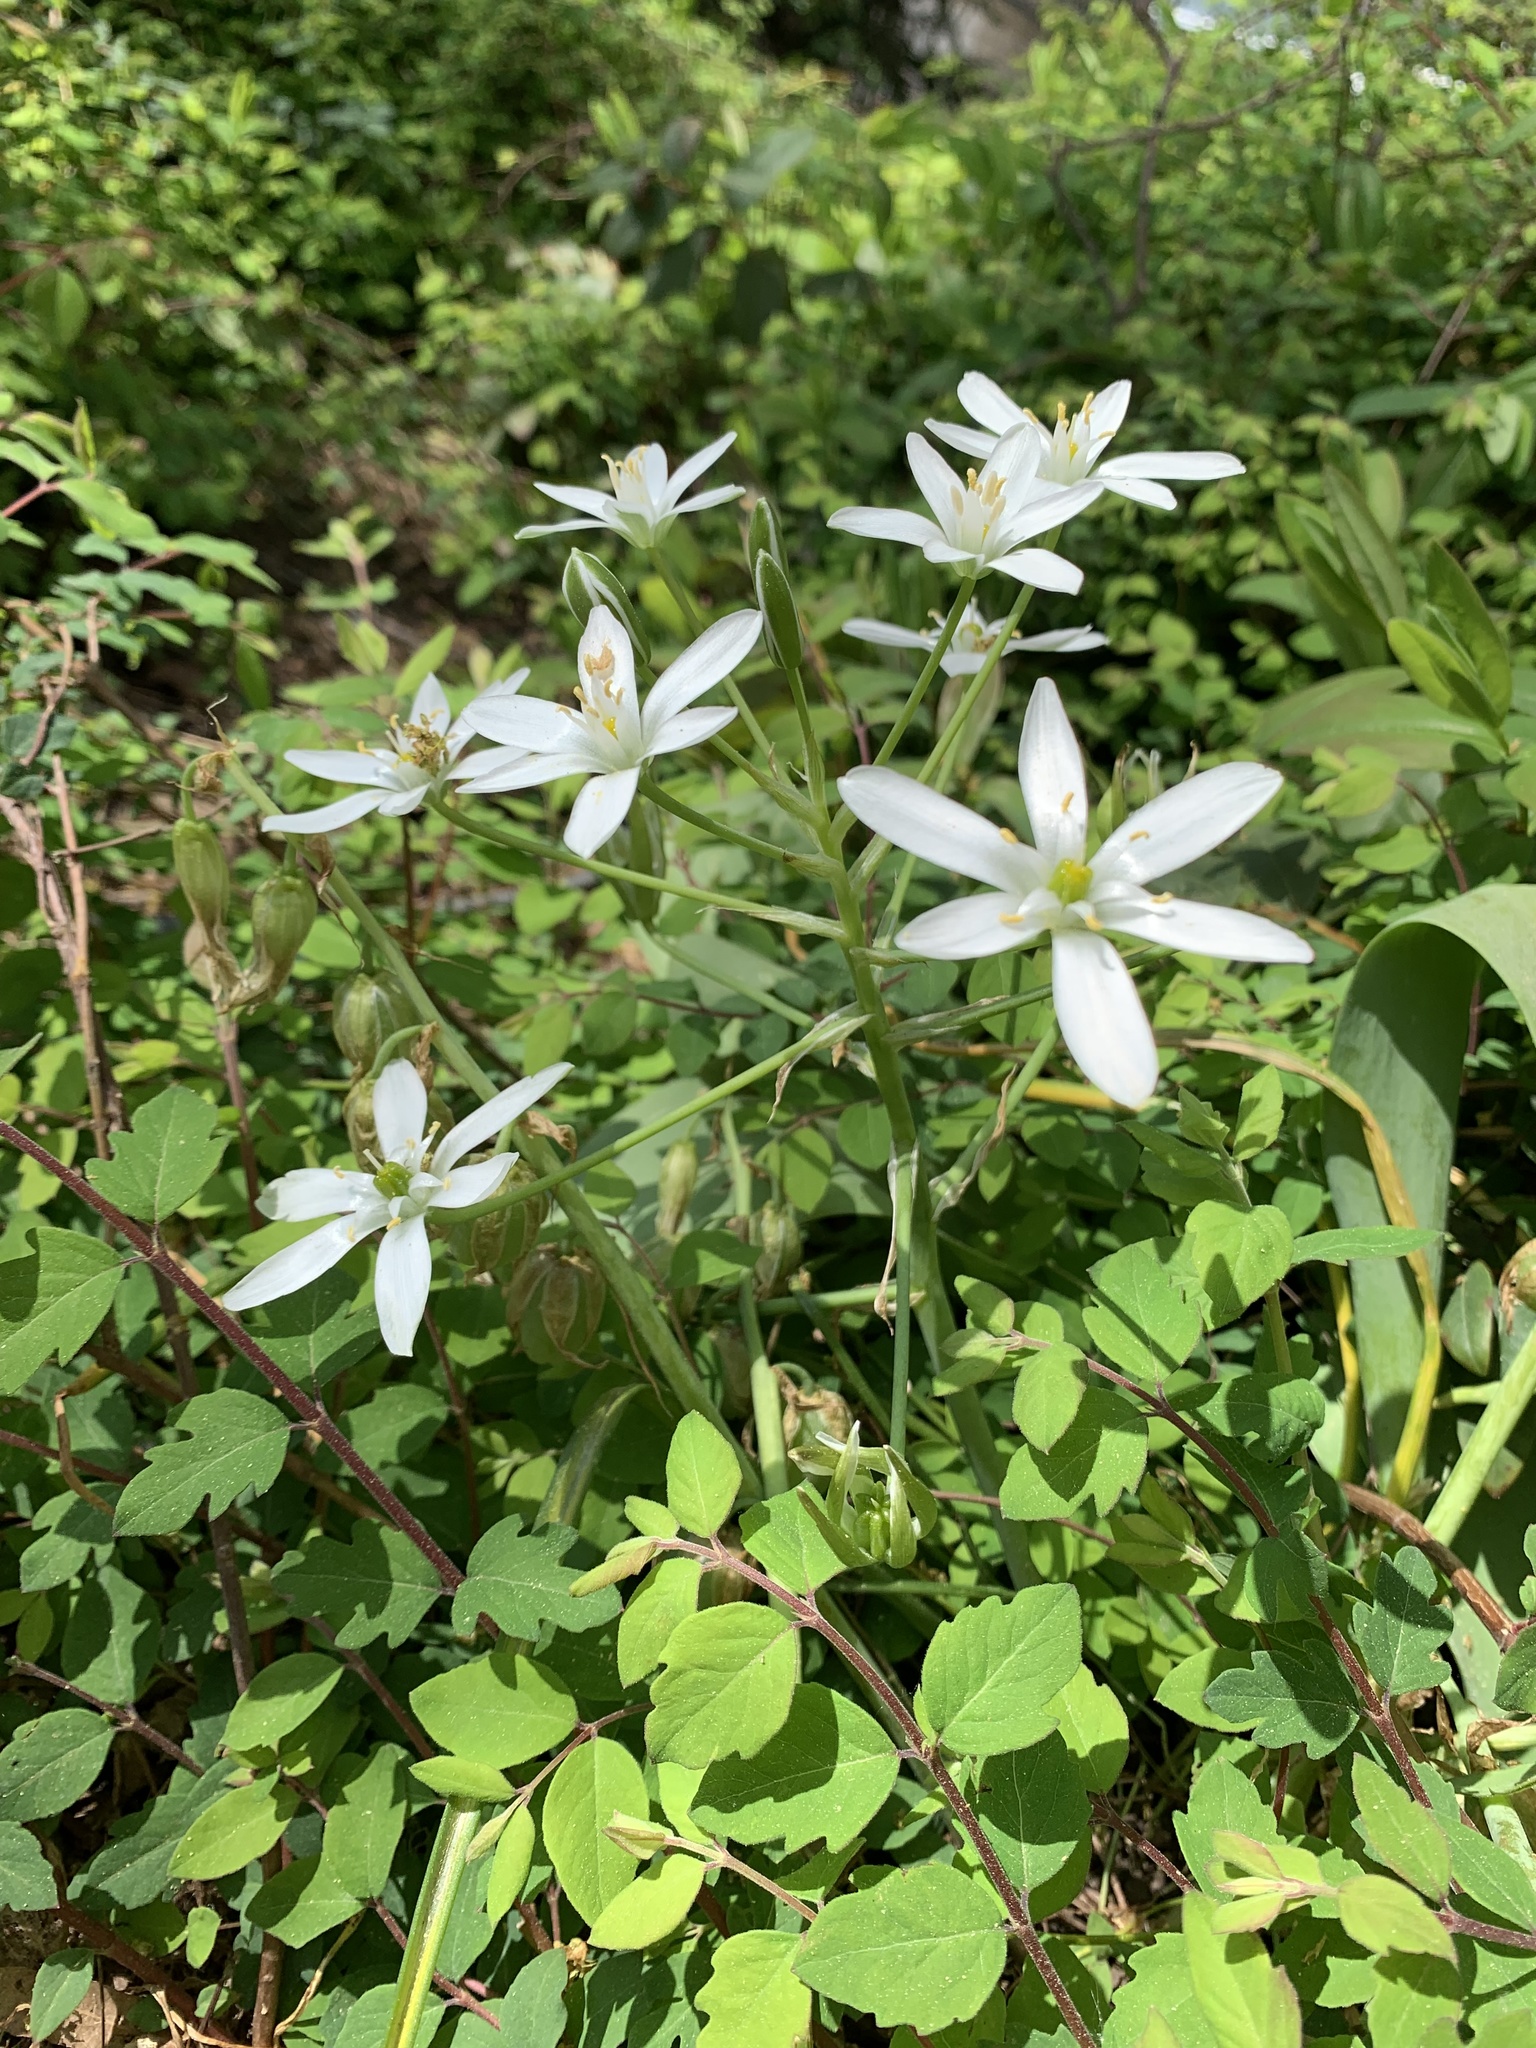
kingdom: Plantae
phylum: Tracheophyta
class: Liliopsida
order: Asparagales
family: Asparagaceae
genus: Ornithogalum
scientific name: Ornithogalum umbellatum
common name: Garden star-of-bethlehem
